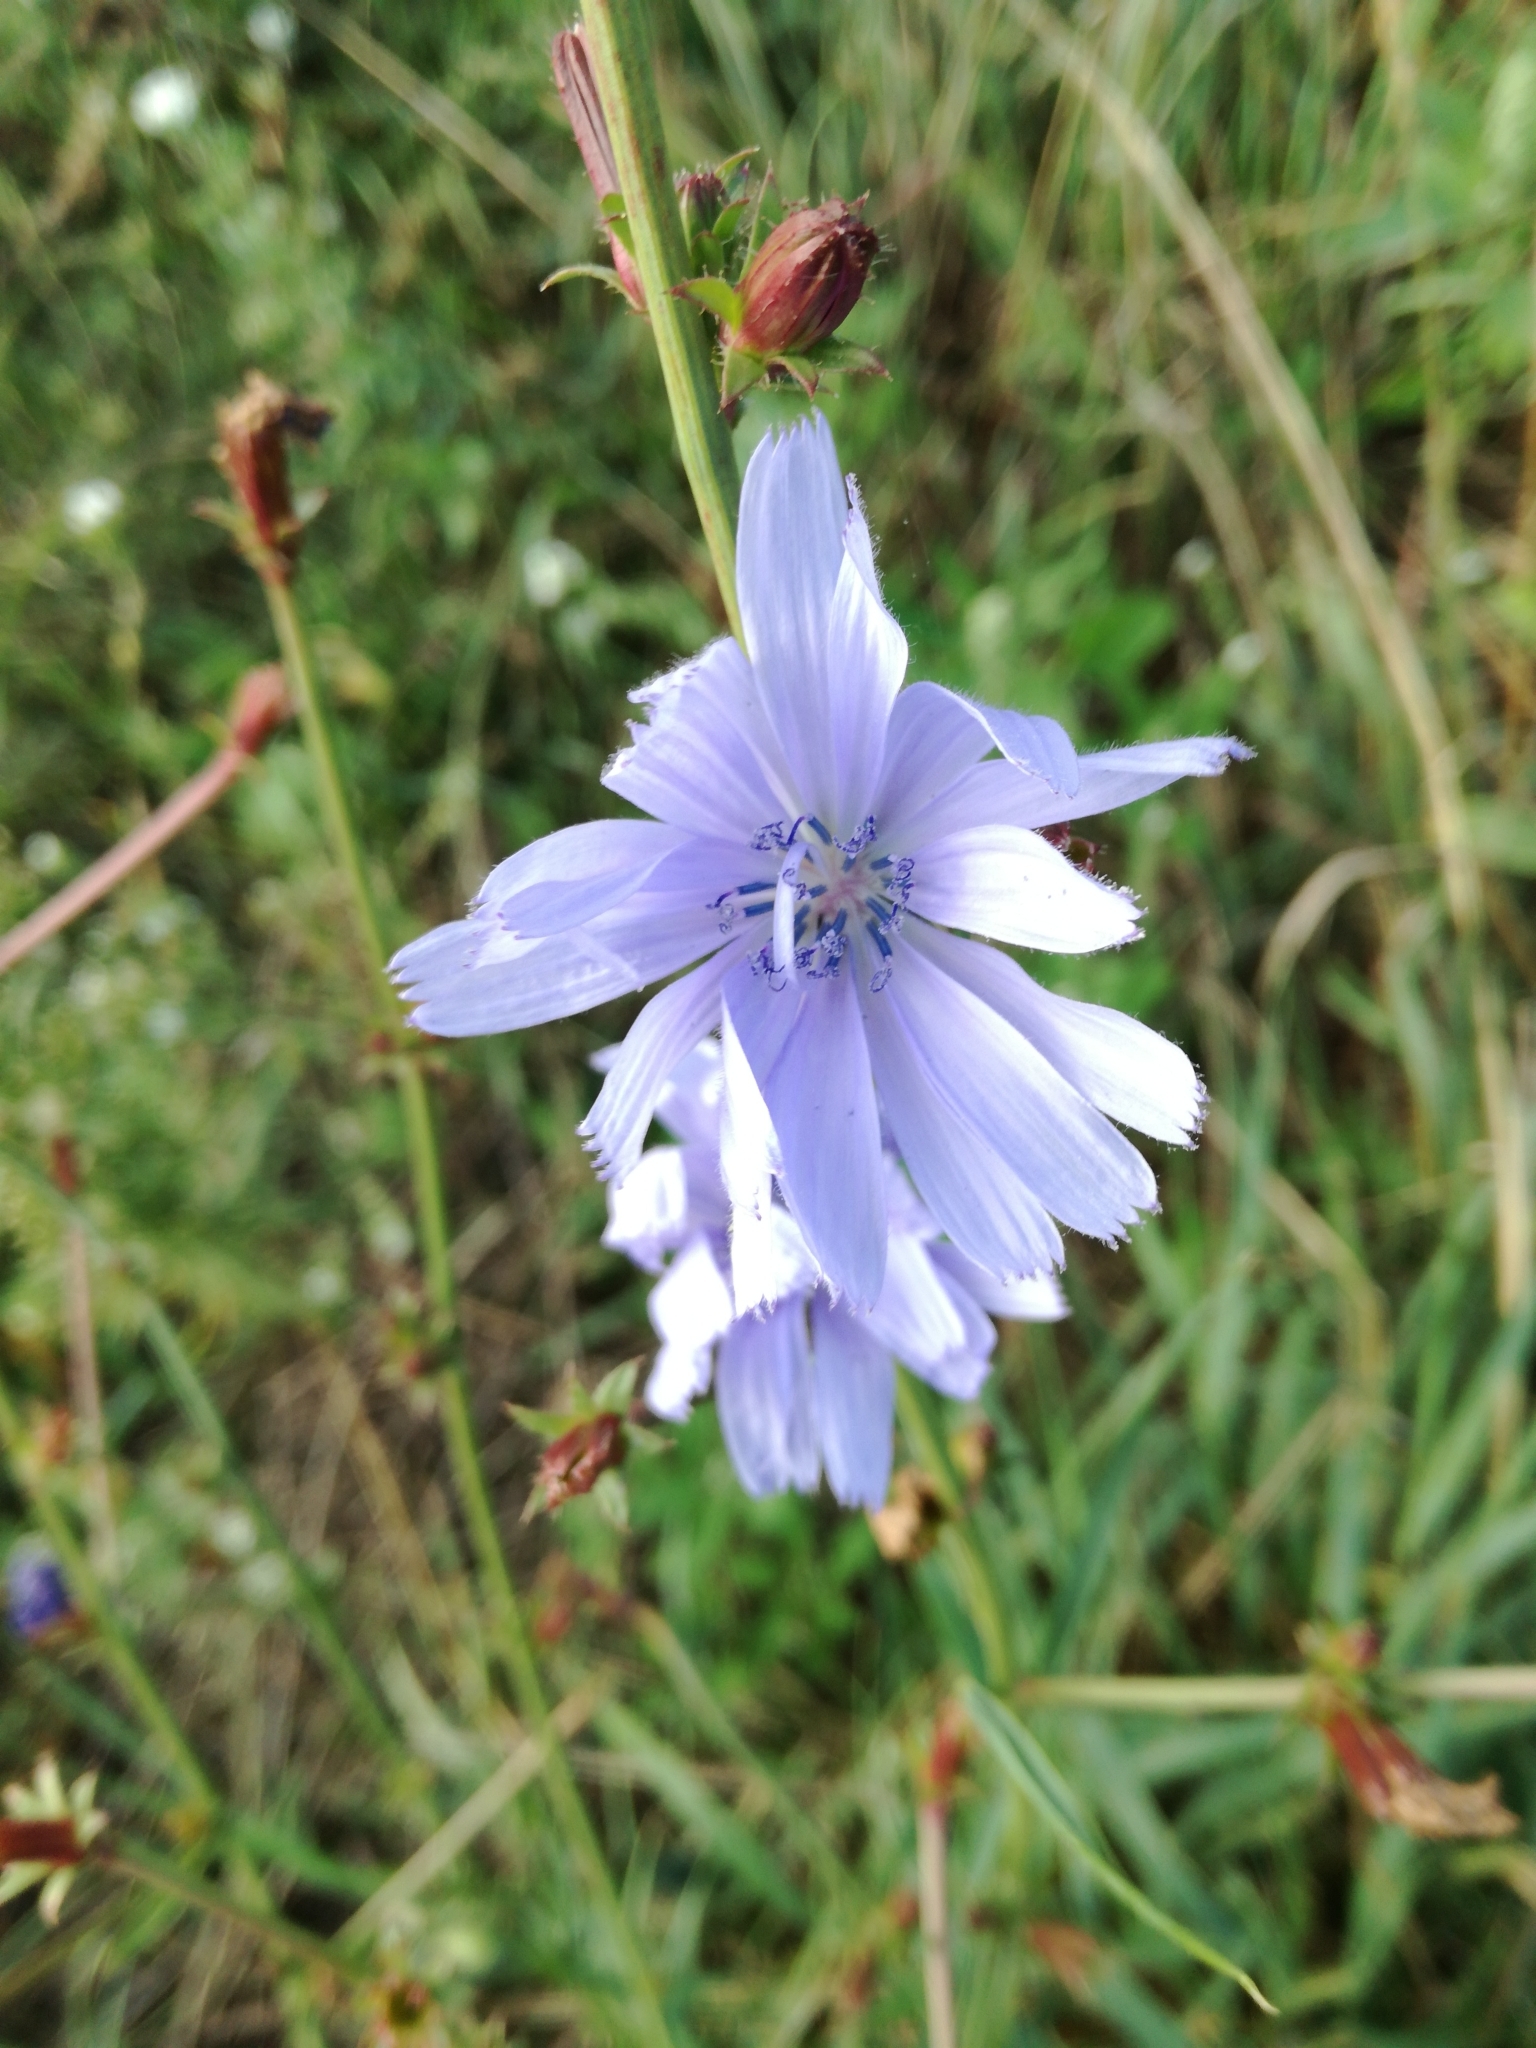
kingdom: Plantae
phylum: Tracheophyta
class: Magnoliopsida
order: Asterales
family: Asteraceae
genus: Cichorium
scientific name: Cichorium intybus
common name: Chicory
